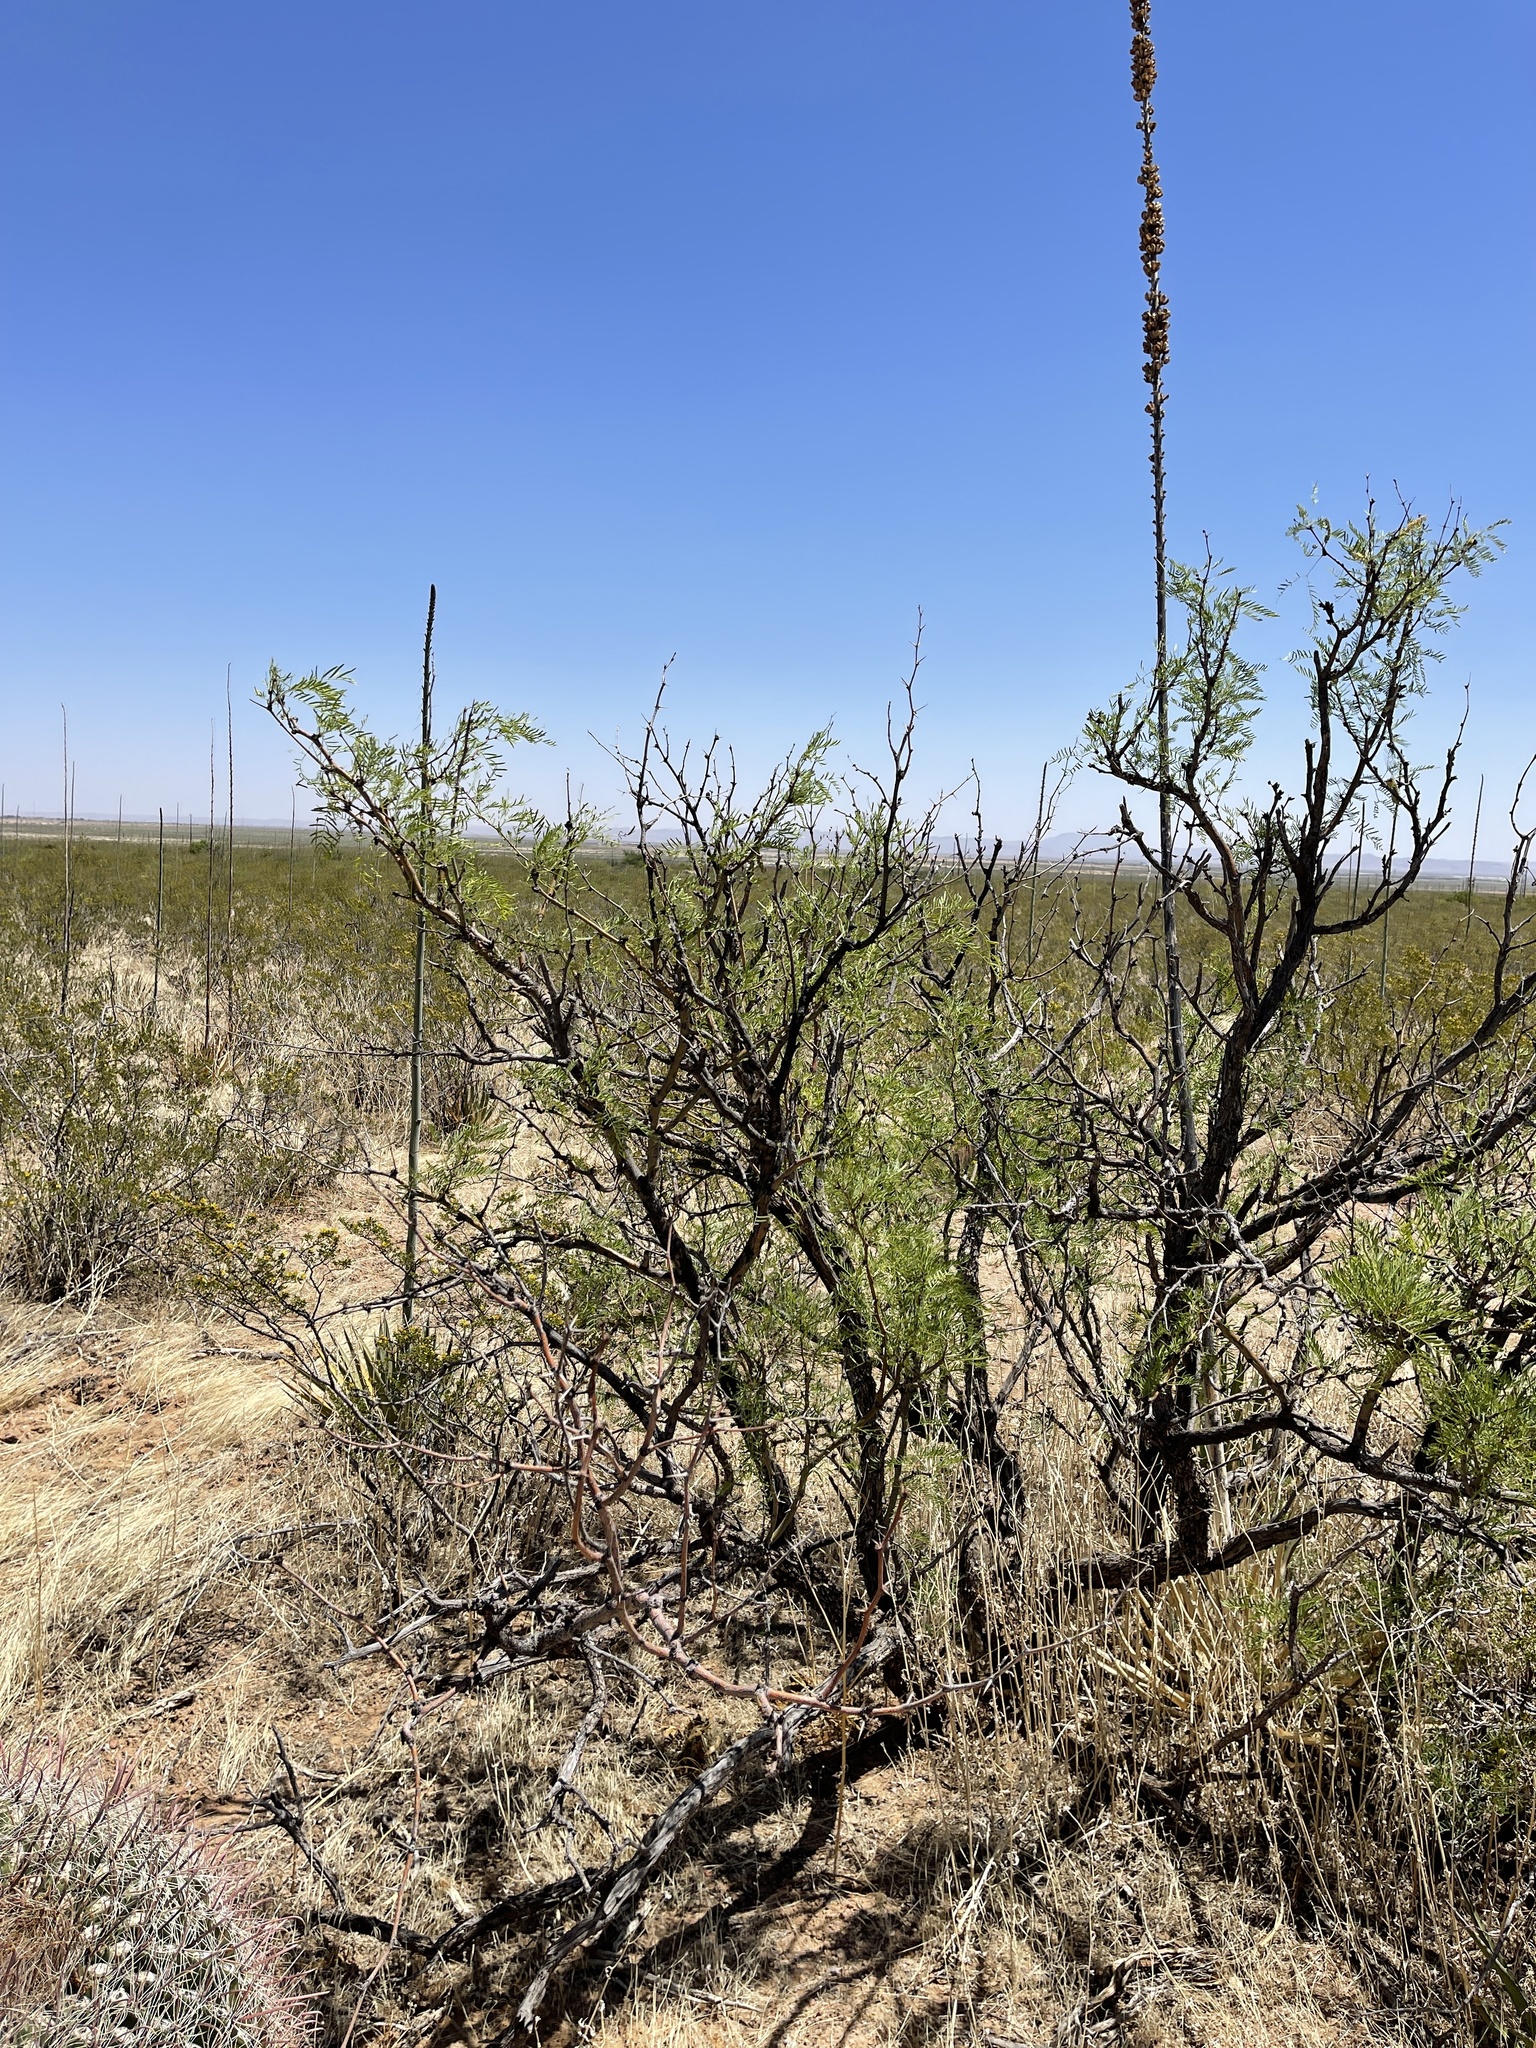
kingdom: Plantae
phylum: Tracheophyta
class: Magnoliopsida
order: Fabales
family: Fabaceae
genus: Prosopis
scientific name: Prosopis pubescens
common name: Screw-bean
